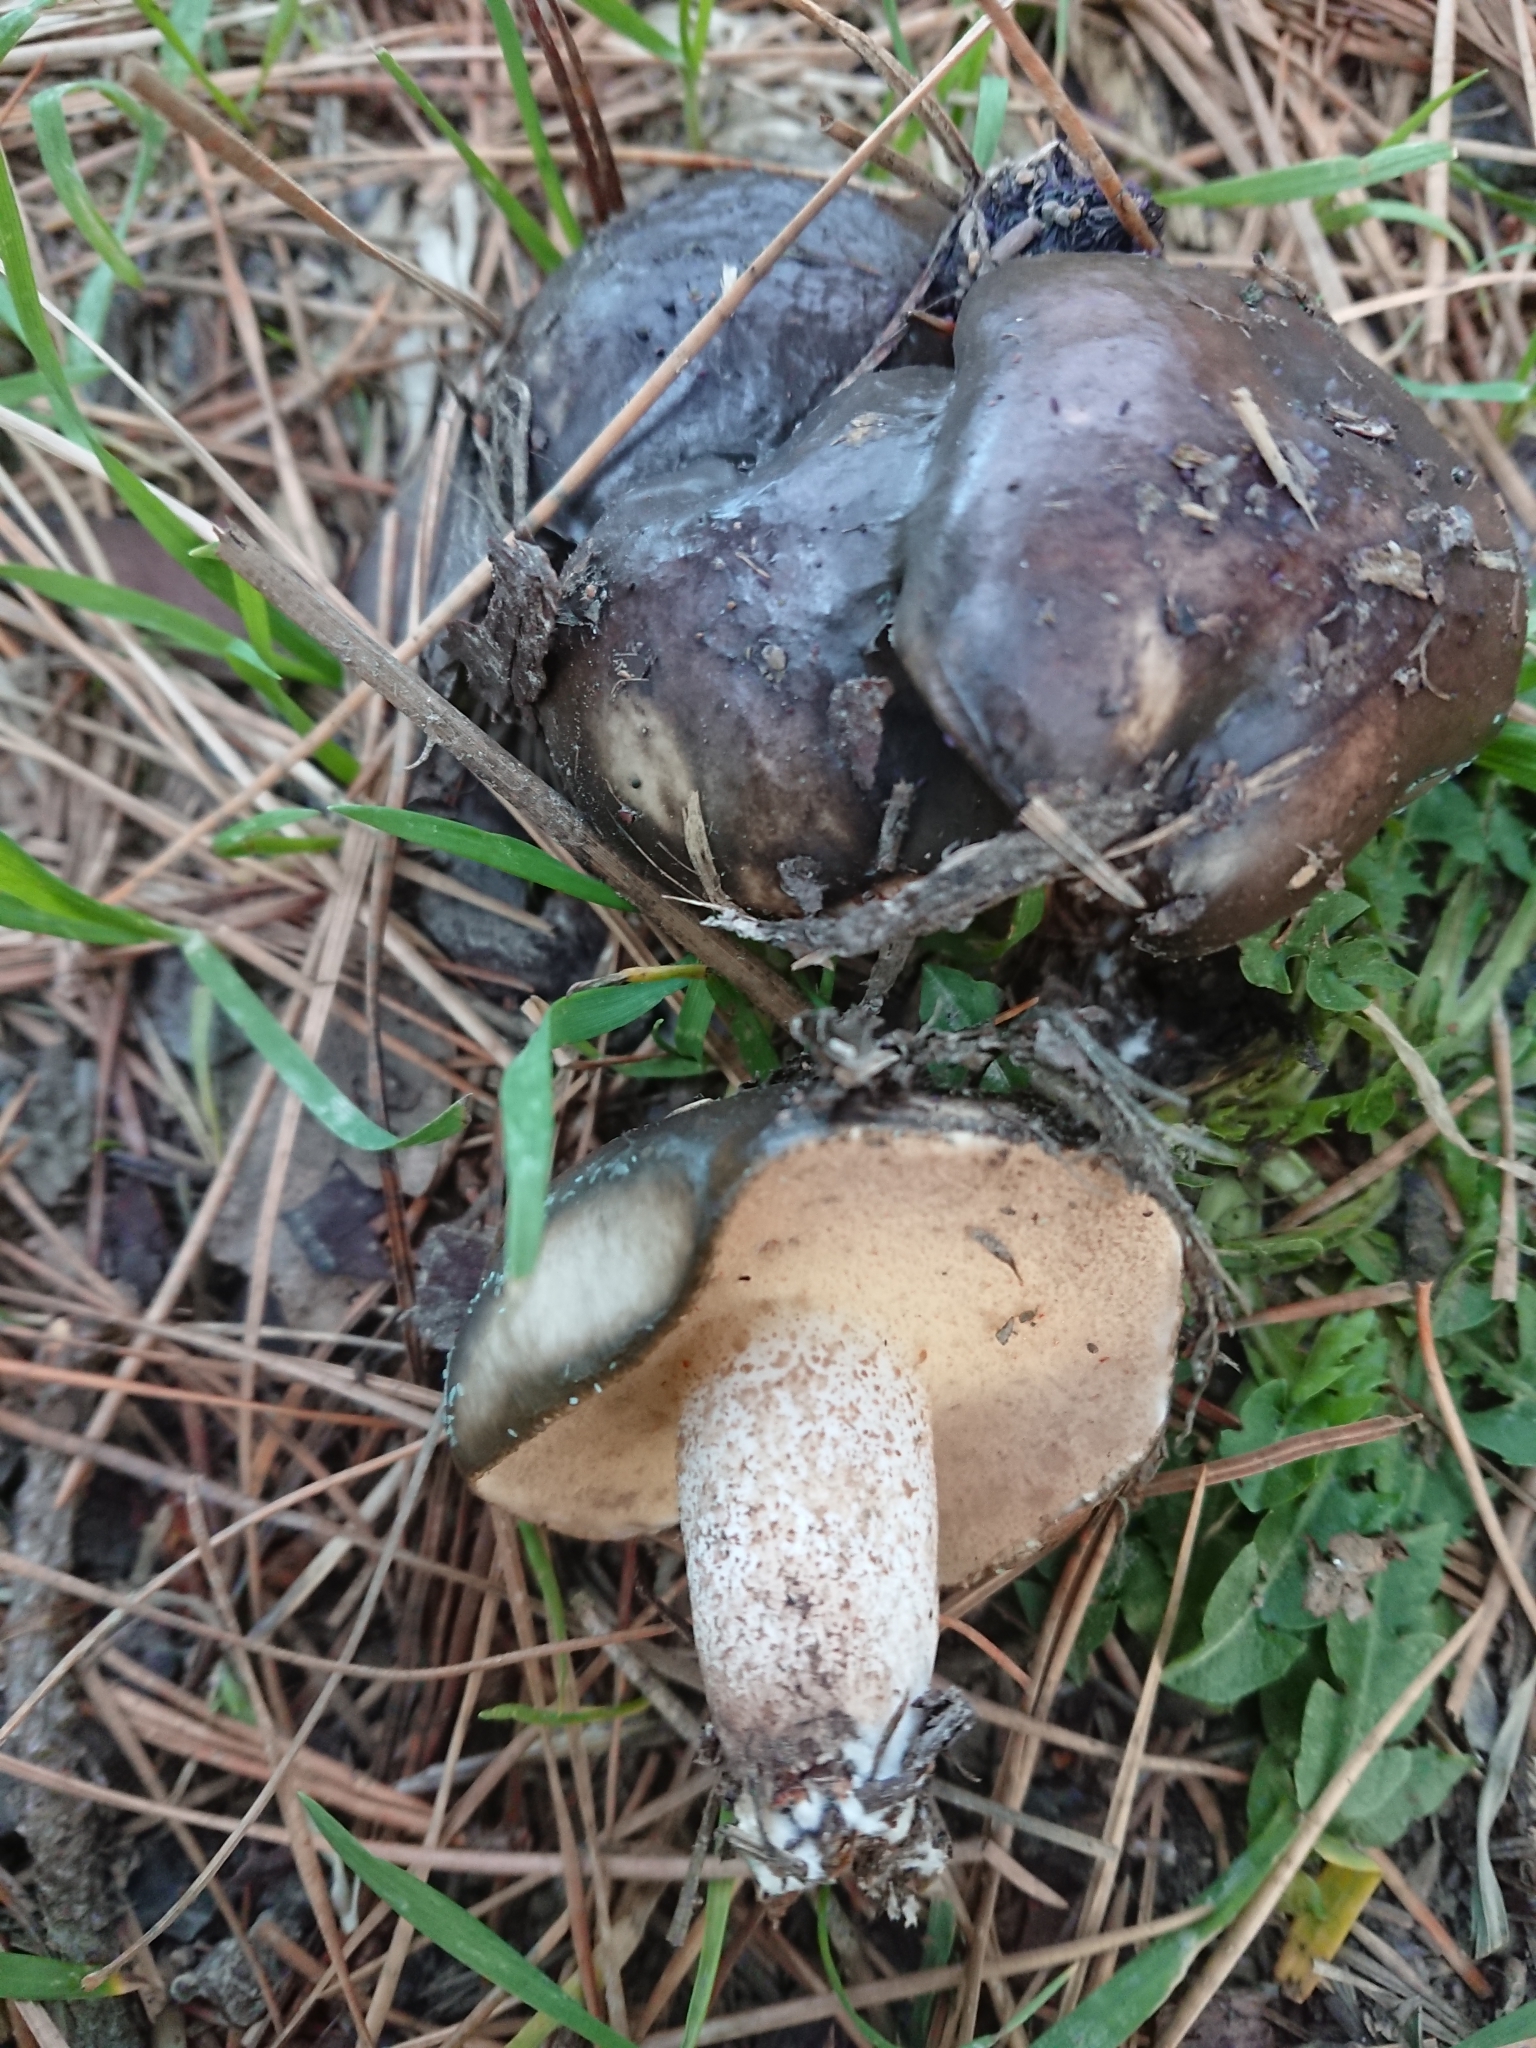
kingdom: Fungi
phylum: Basidiomycota
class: Agaricomycetes
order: Boletales
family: Suillaceae
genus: Suillus
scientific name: Suillus pungens
